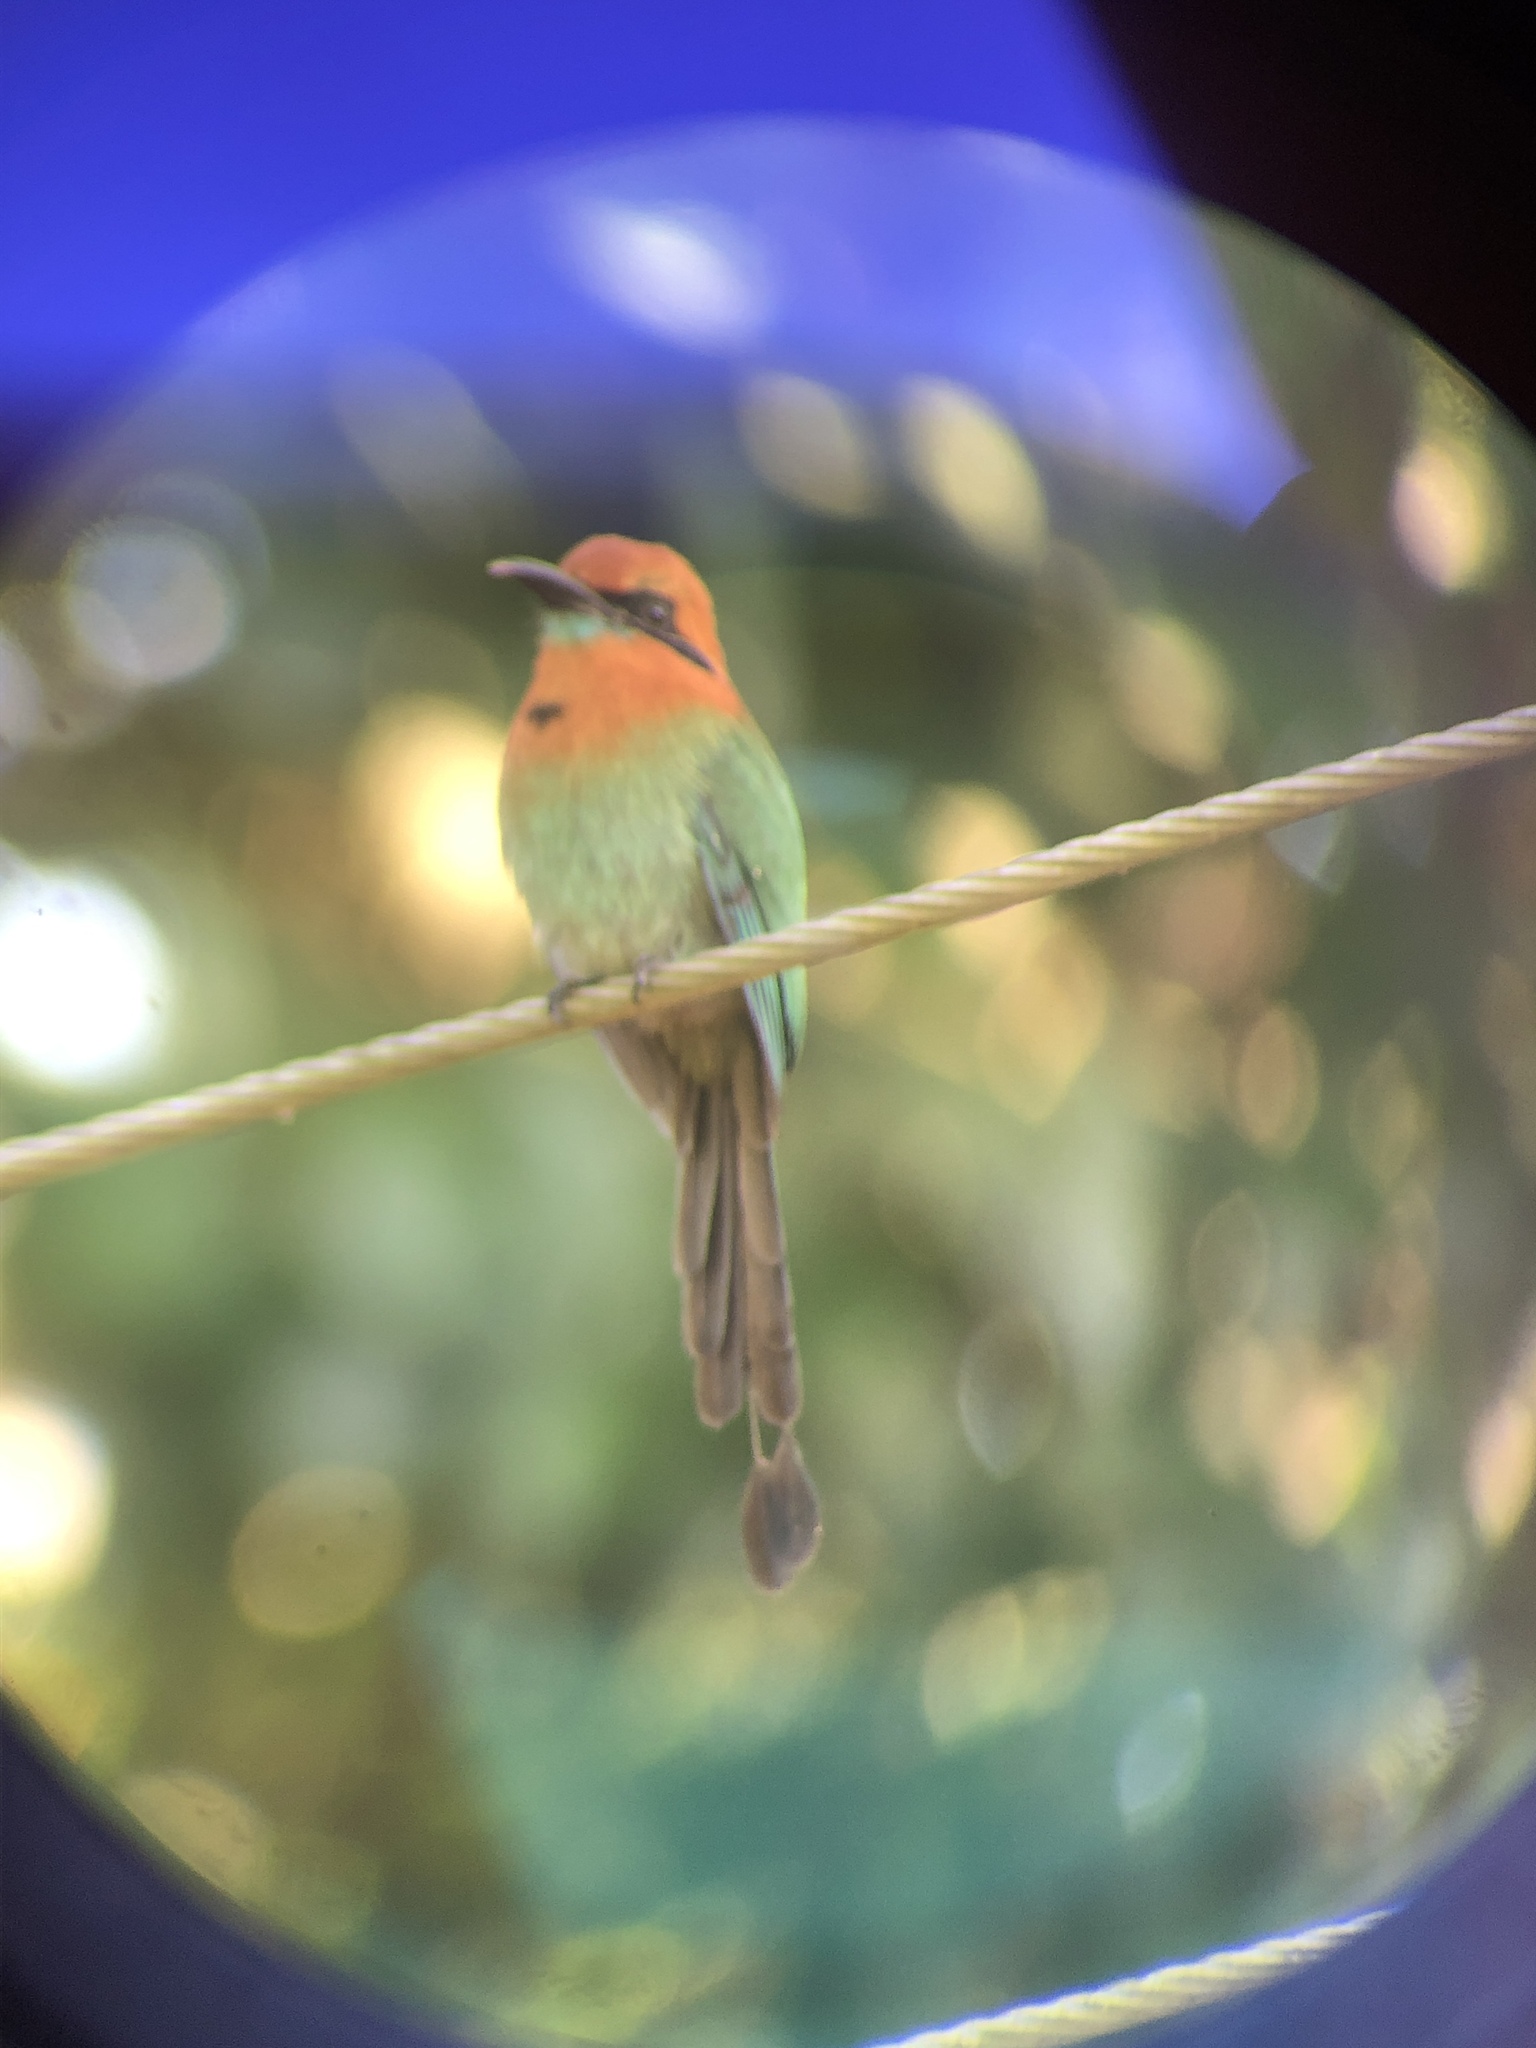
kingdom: Animalia
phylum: Chordata
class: Aves
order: Coraciiformes
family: Momotidae
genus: Electron
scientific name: Electron platyrhynchum
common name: Broad-billed motmot
